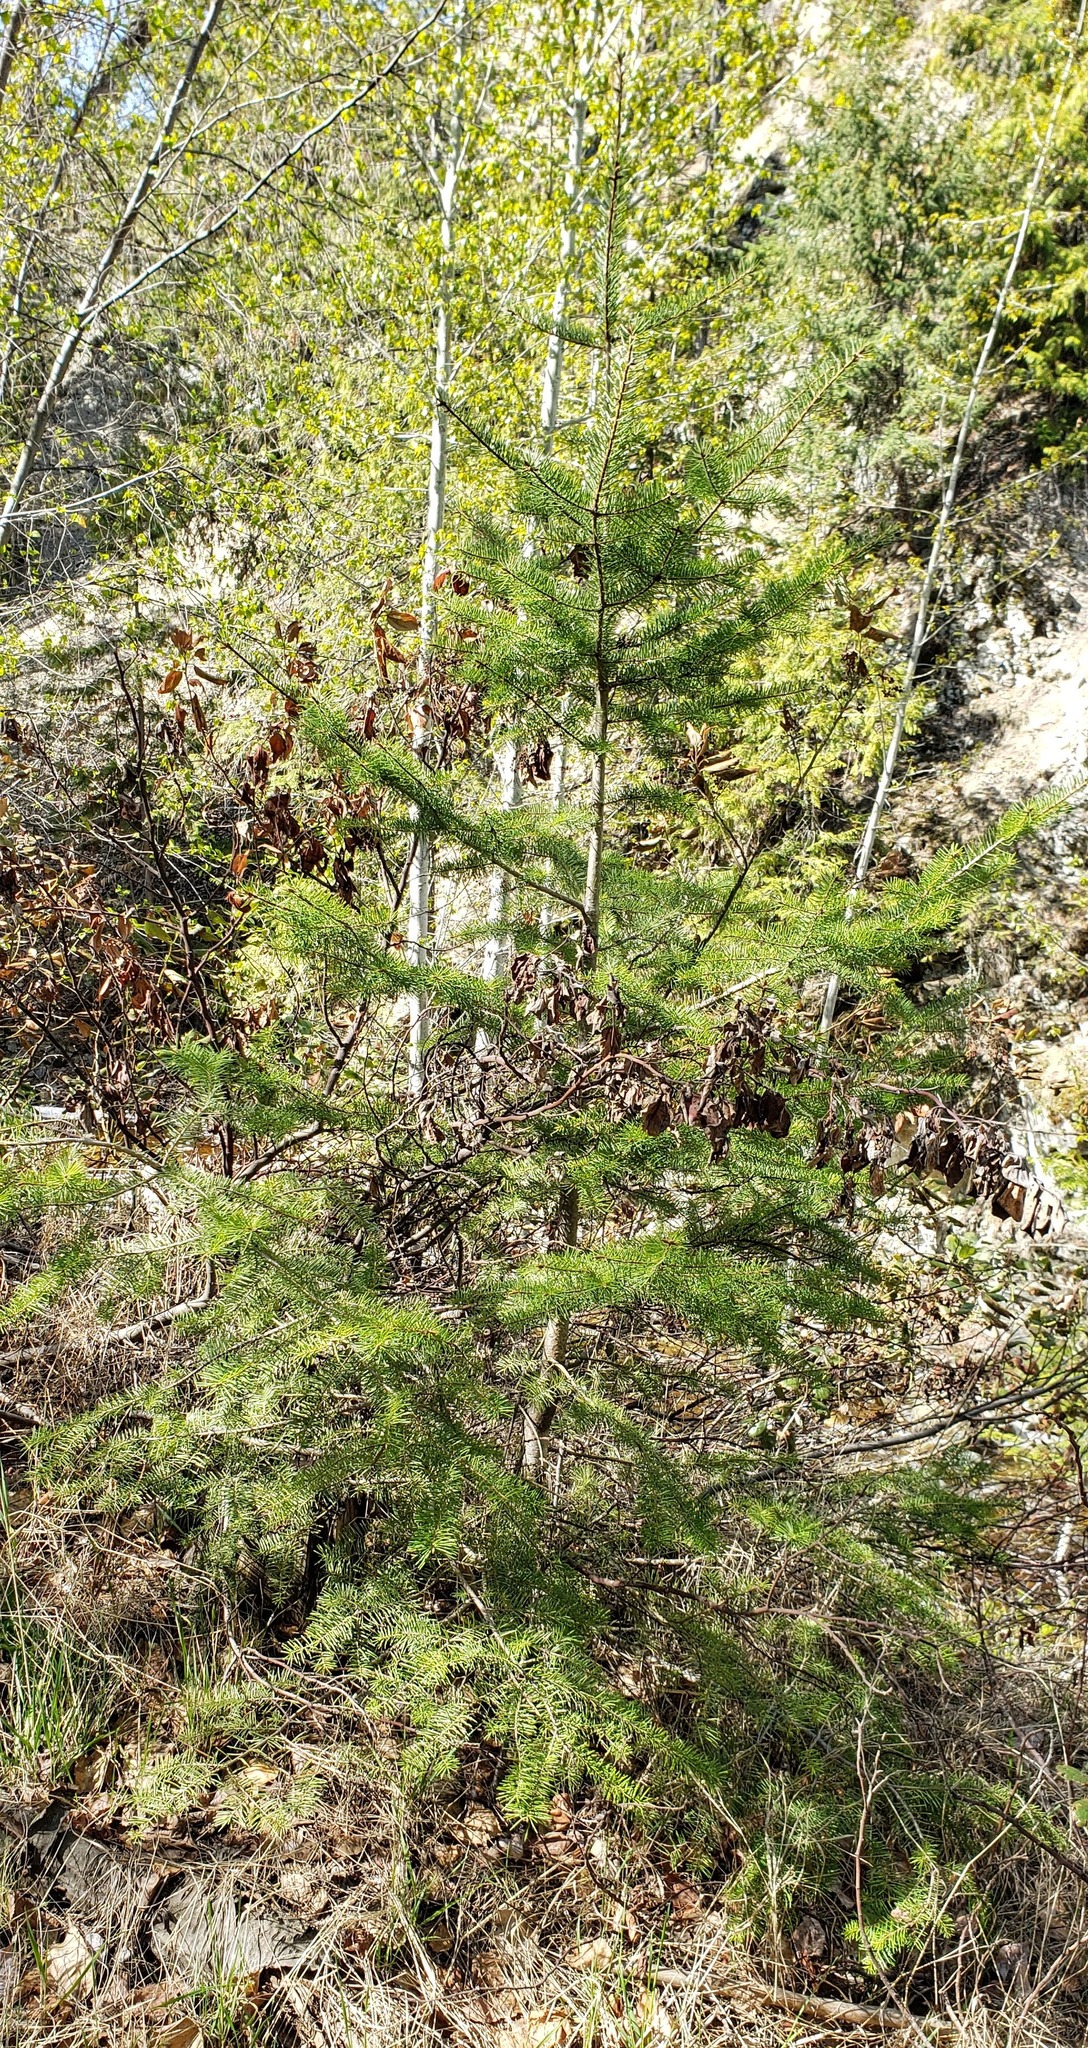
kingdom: Plantae
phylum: Tracheophyta
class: Pinopsida
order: Pinales
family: Pinaceae
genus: Pseudotsuga
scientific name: Pseudotsuga menziesii
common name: Douglas fir
